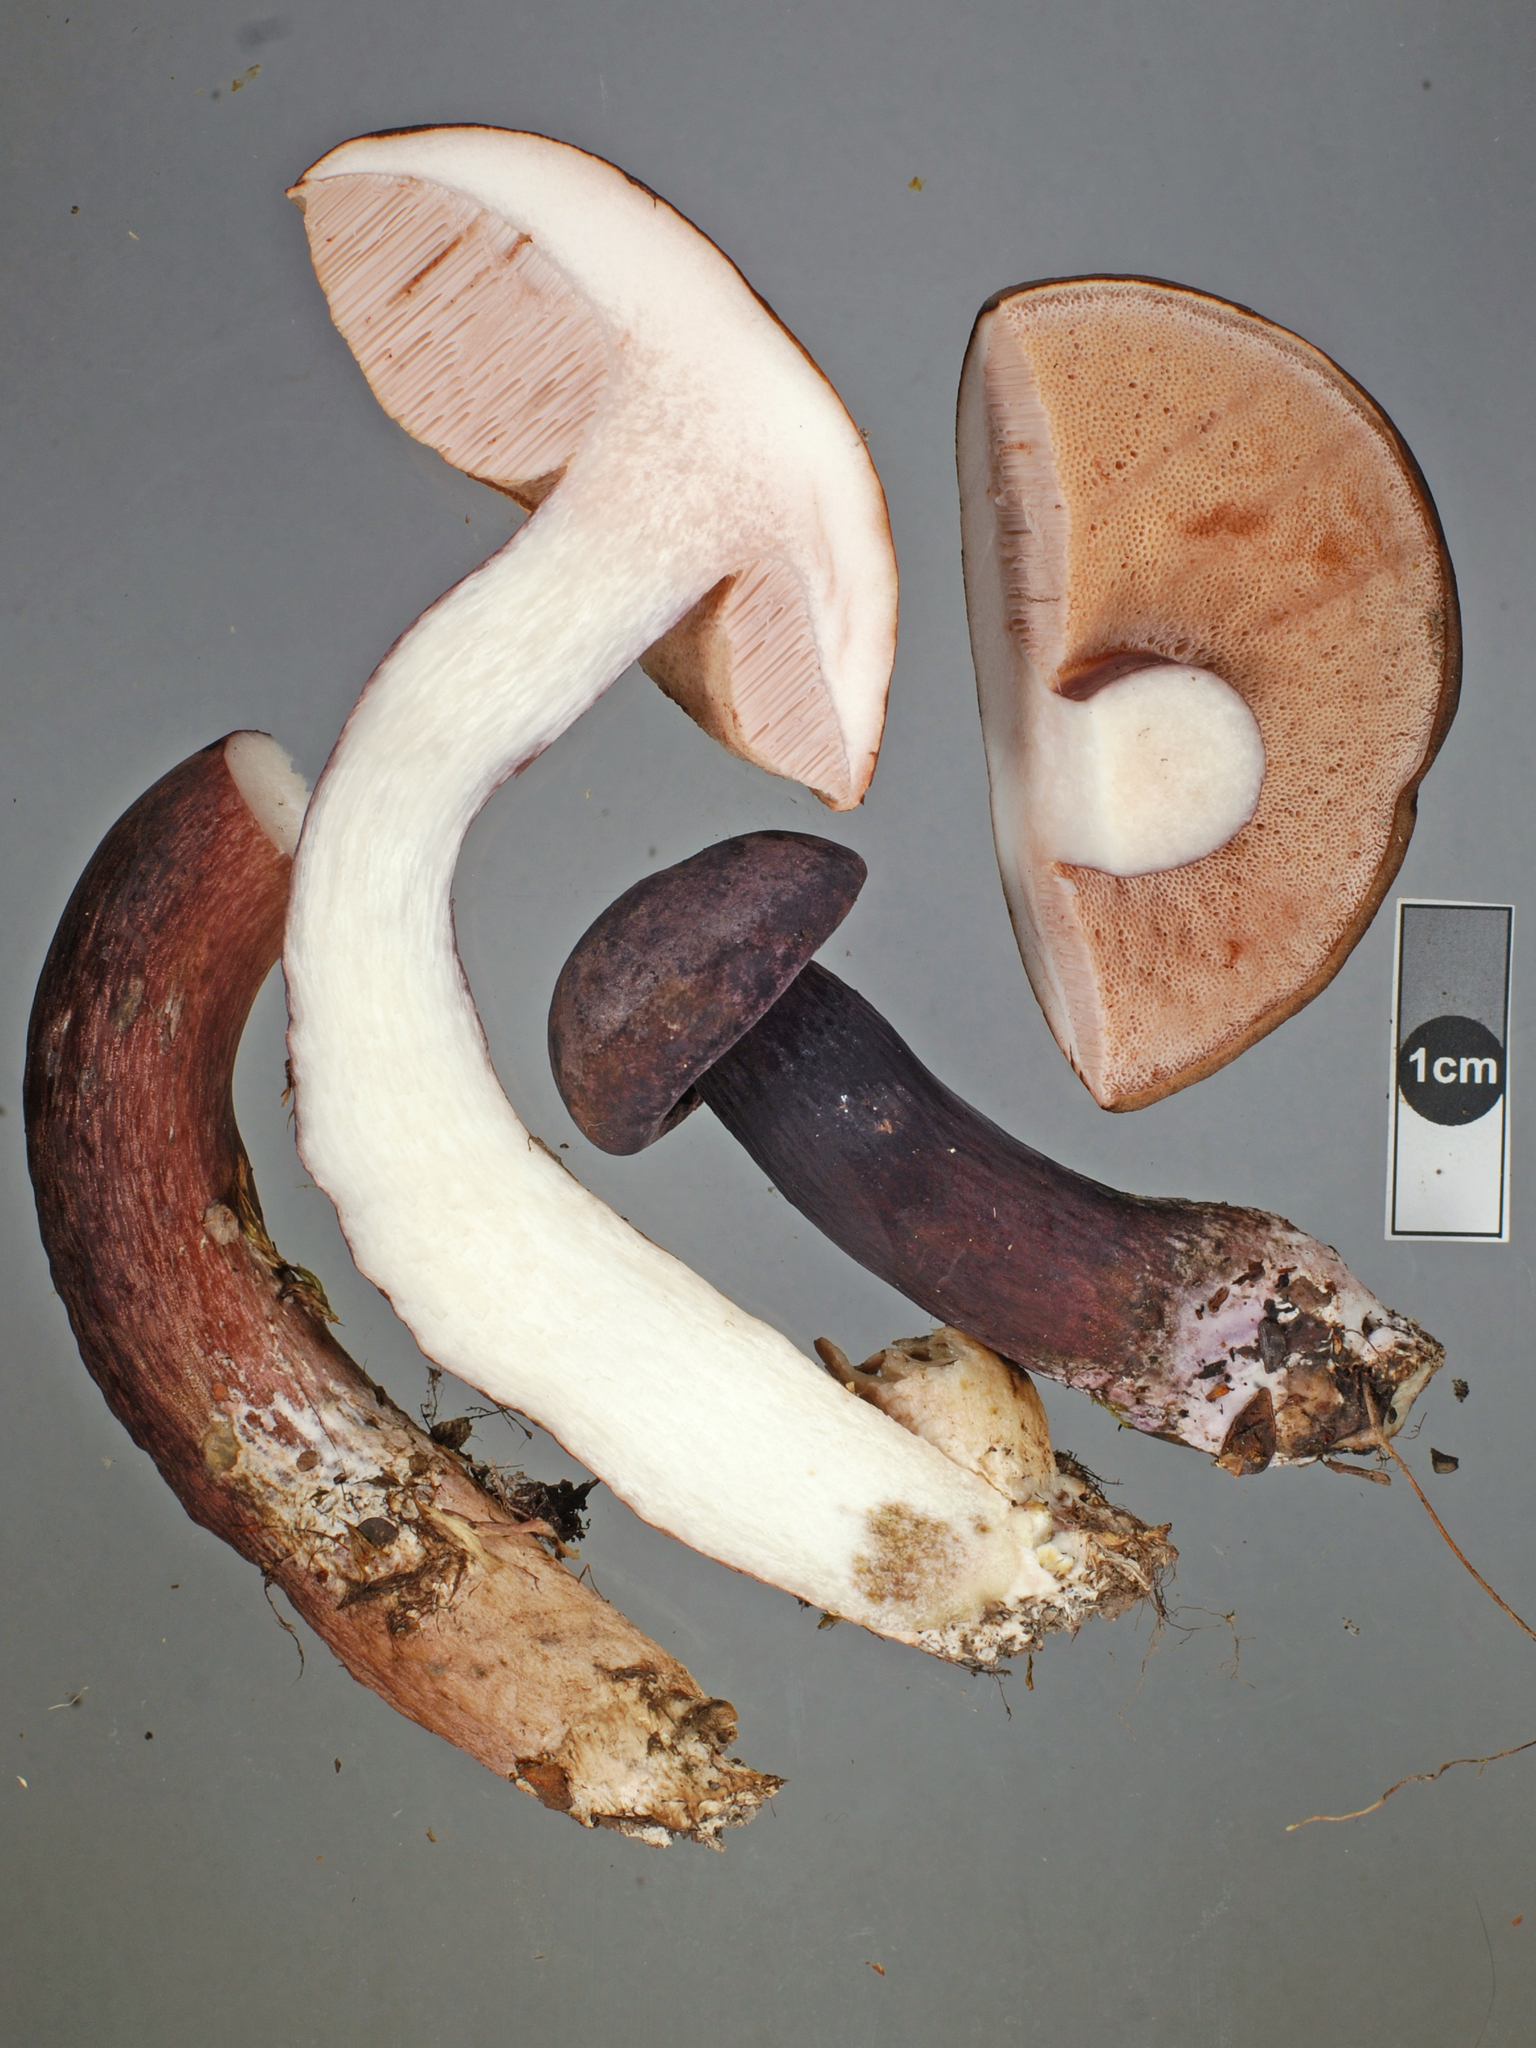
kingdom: Fungi
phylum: Basidiomycota
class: Agaricomycetes
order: Boletales
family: Boletaceae
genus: Porphyrellus
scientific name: Porphyrellus formosus
